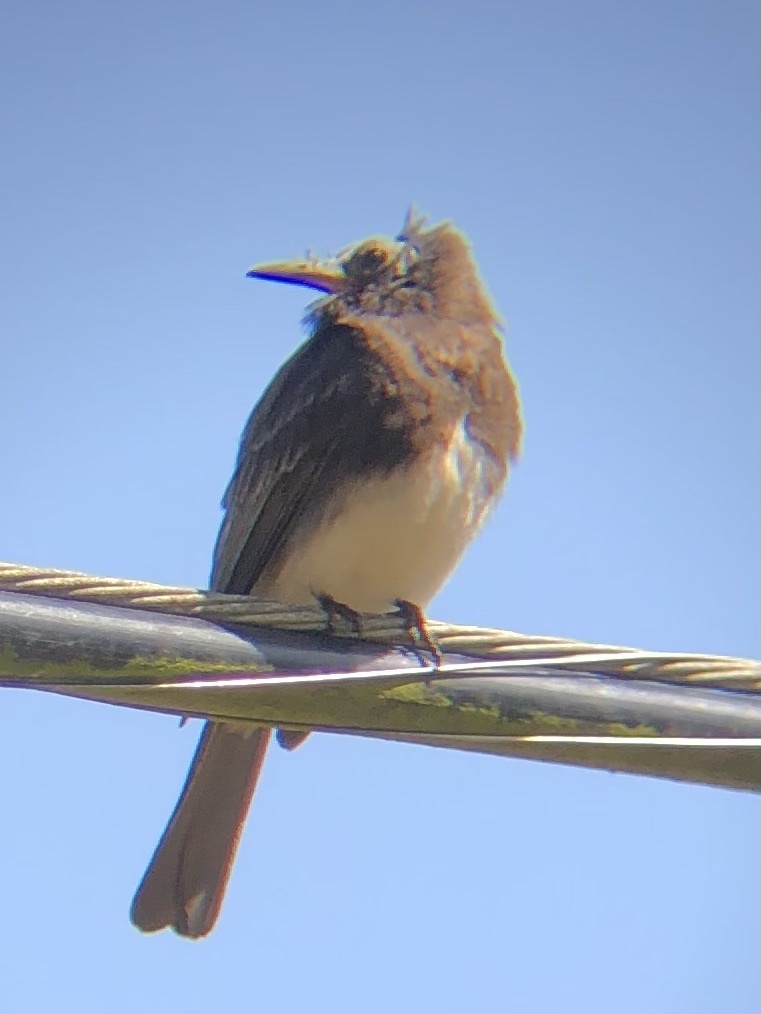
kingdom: Animalia
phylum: Chordata
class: Aves
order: Passeriformes
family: Tyrannidae
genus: Sayornis
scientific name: Sayornis nigricans
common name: Black phoebe
